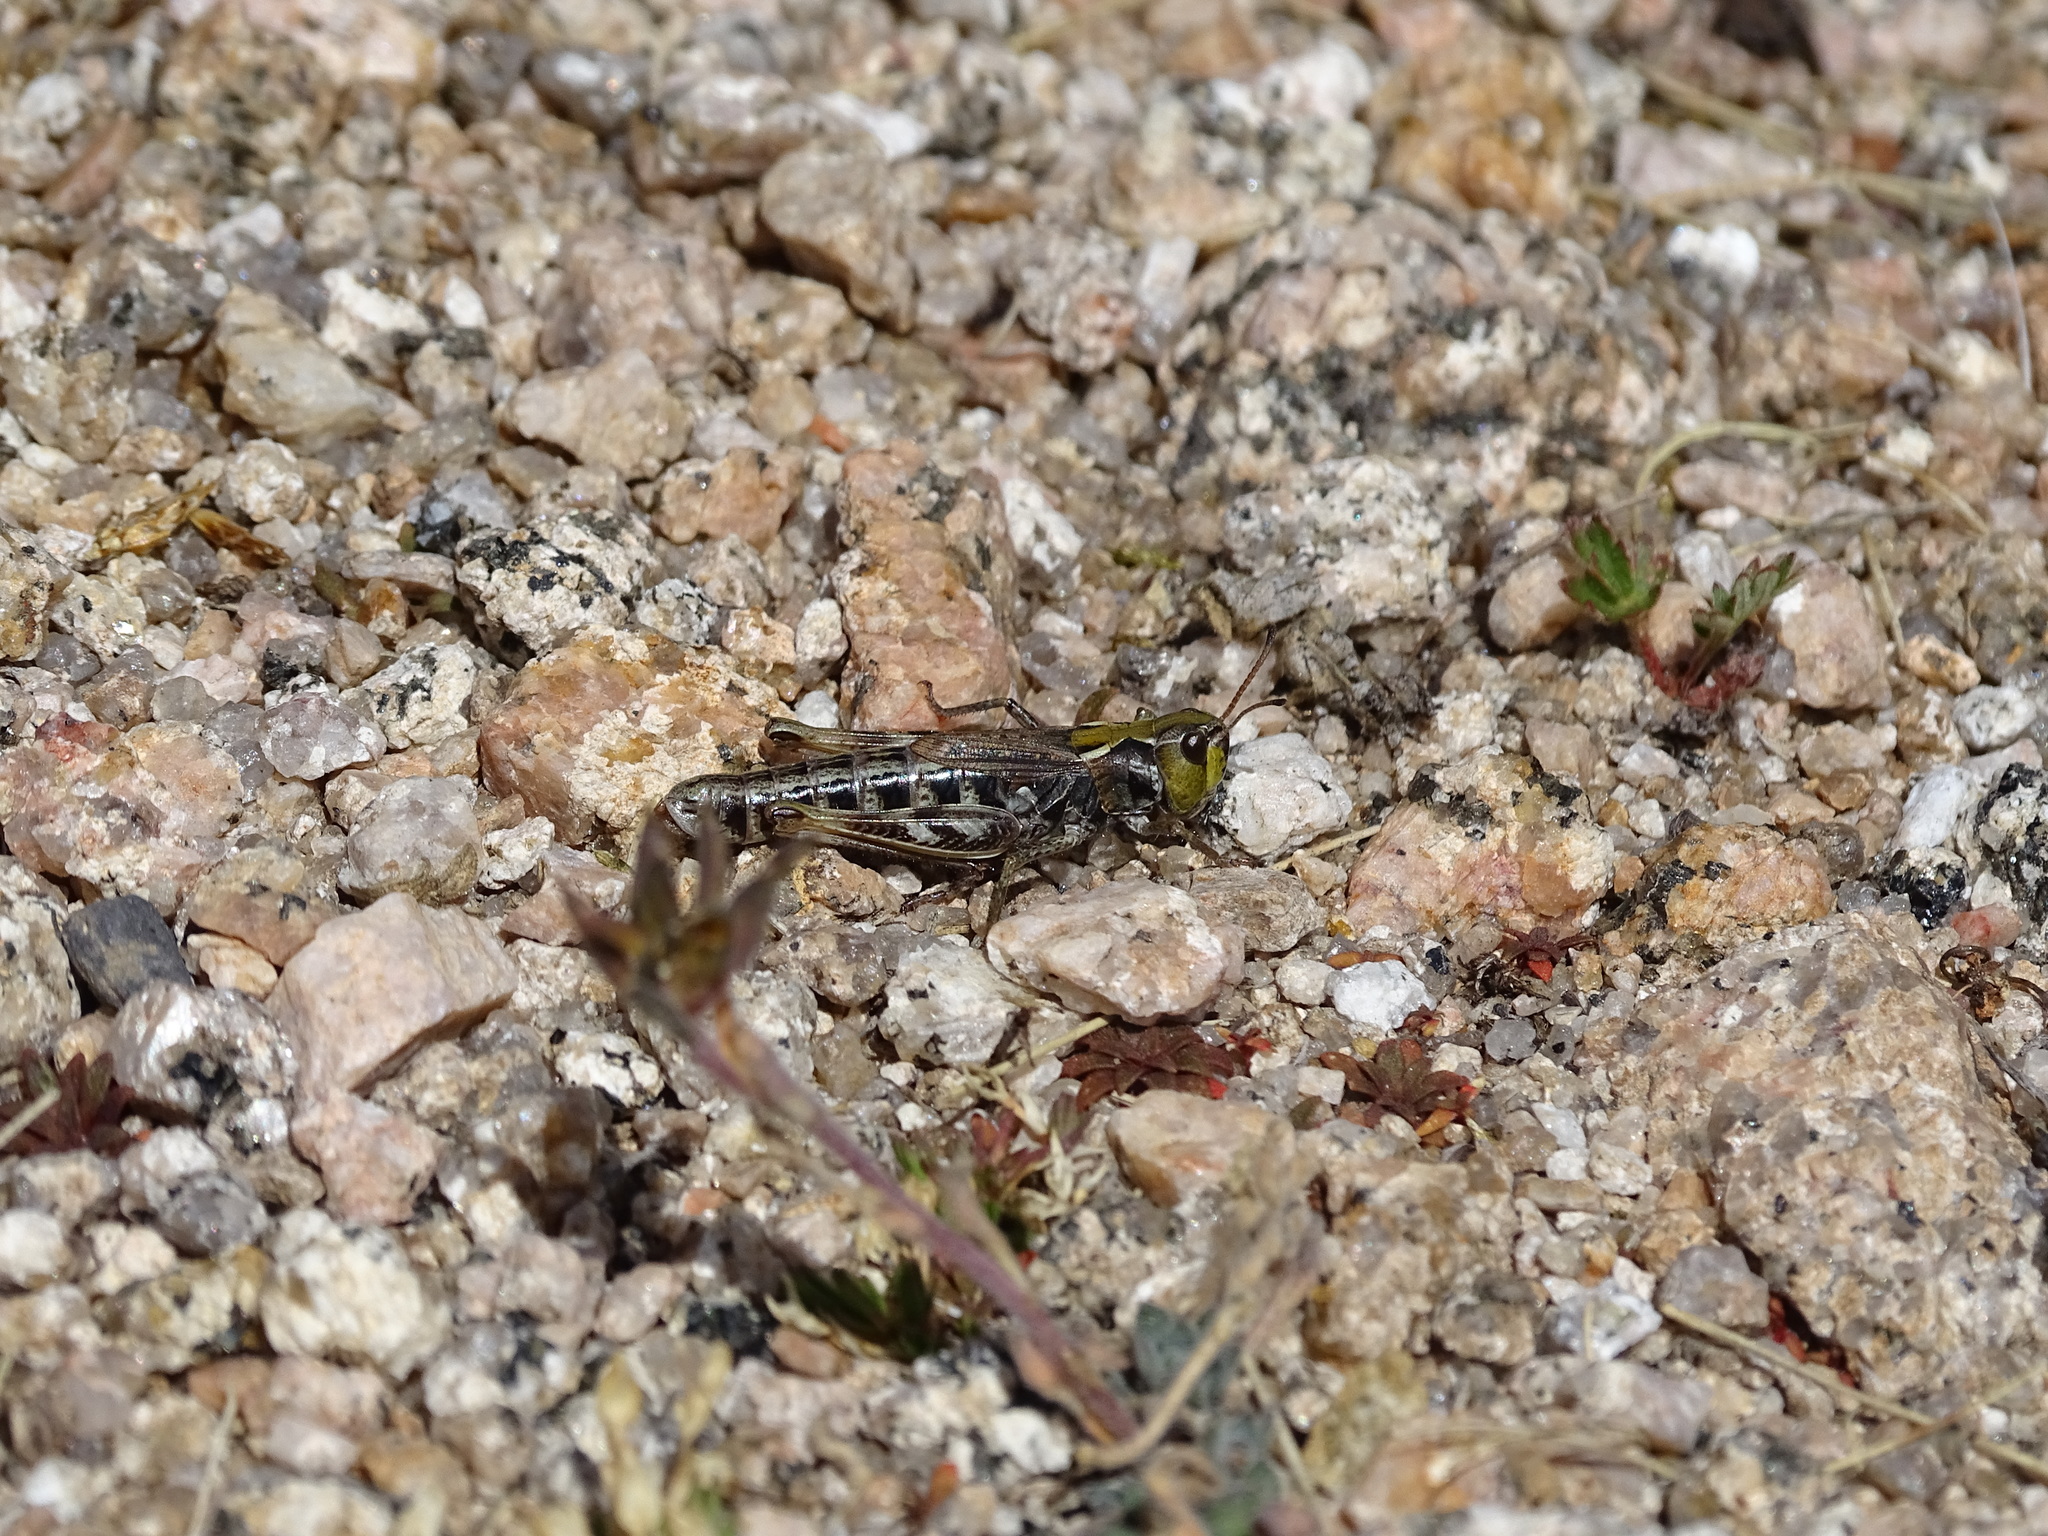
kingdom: Animalia
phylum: Arthropoda
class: Insecta
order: Orthoptera
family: Acrididae
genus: Aeropedellus
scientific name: Aeropedellus clavatus
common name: Clubhorned grasshopper
